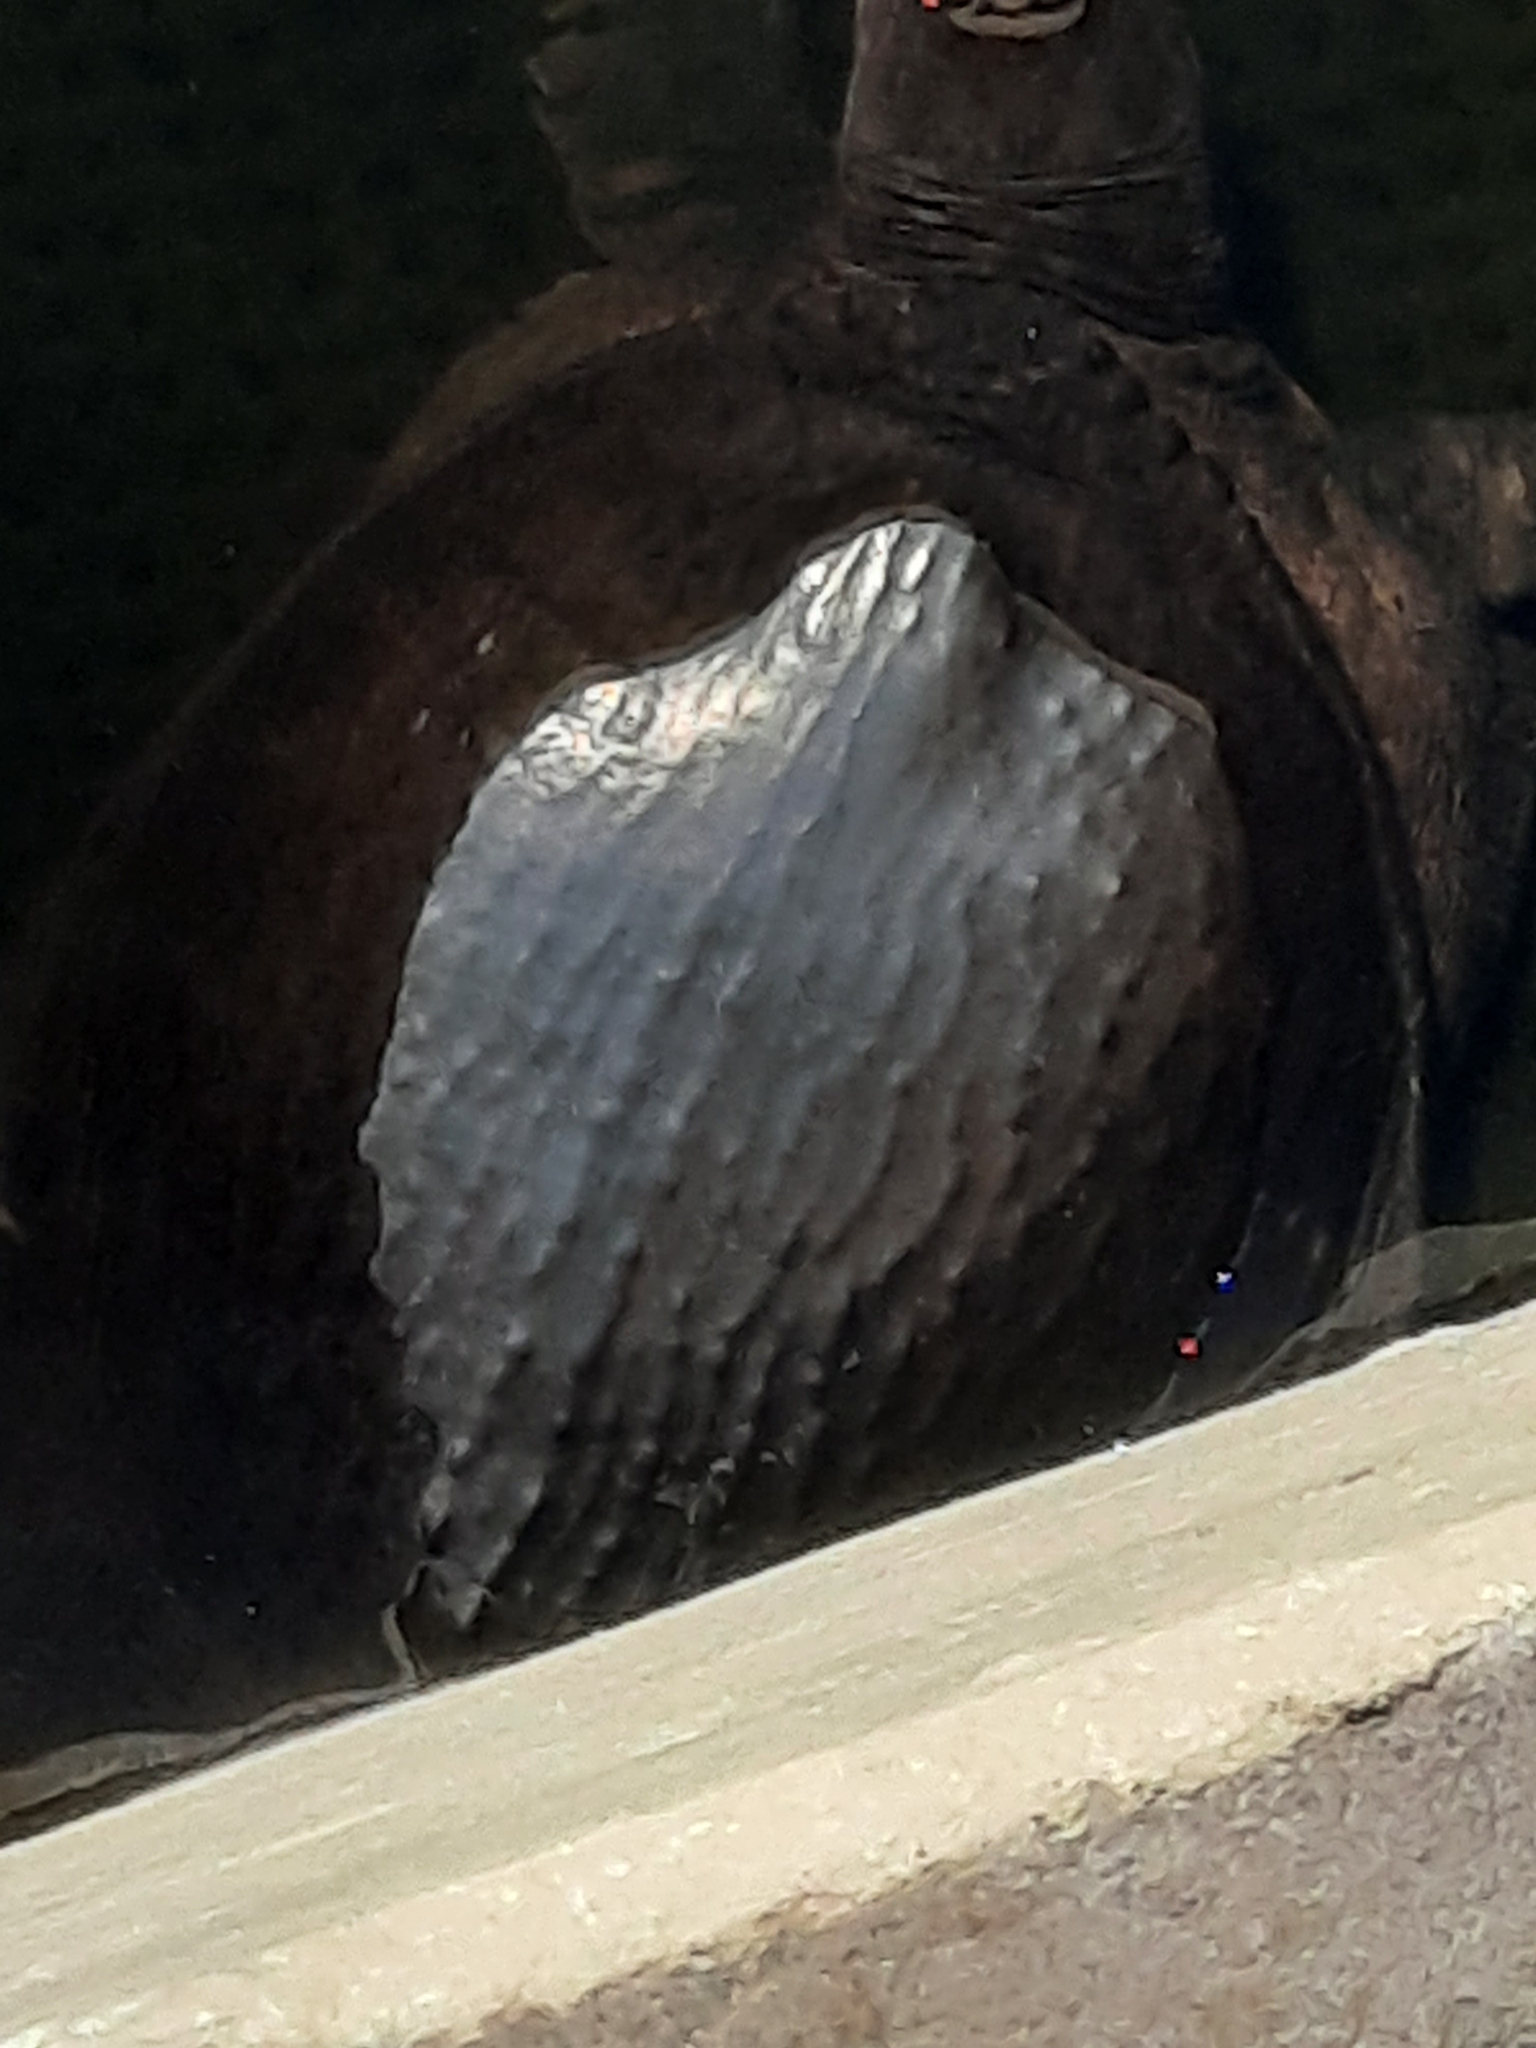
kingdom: Animalia
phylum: Chordata
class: Testudines
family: Trionychidae
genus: Apalone
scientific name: Apalone ferox
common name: Florida softshell turtle
